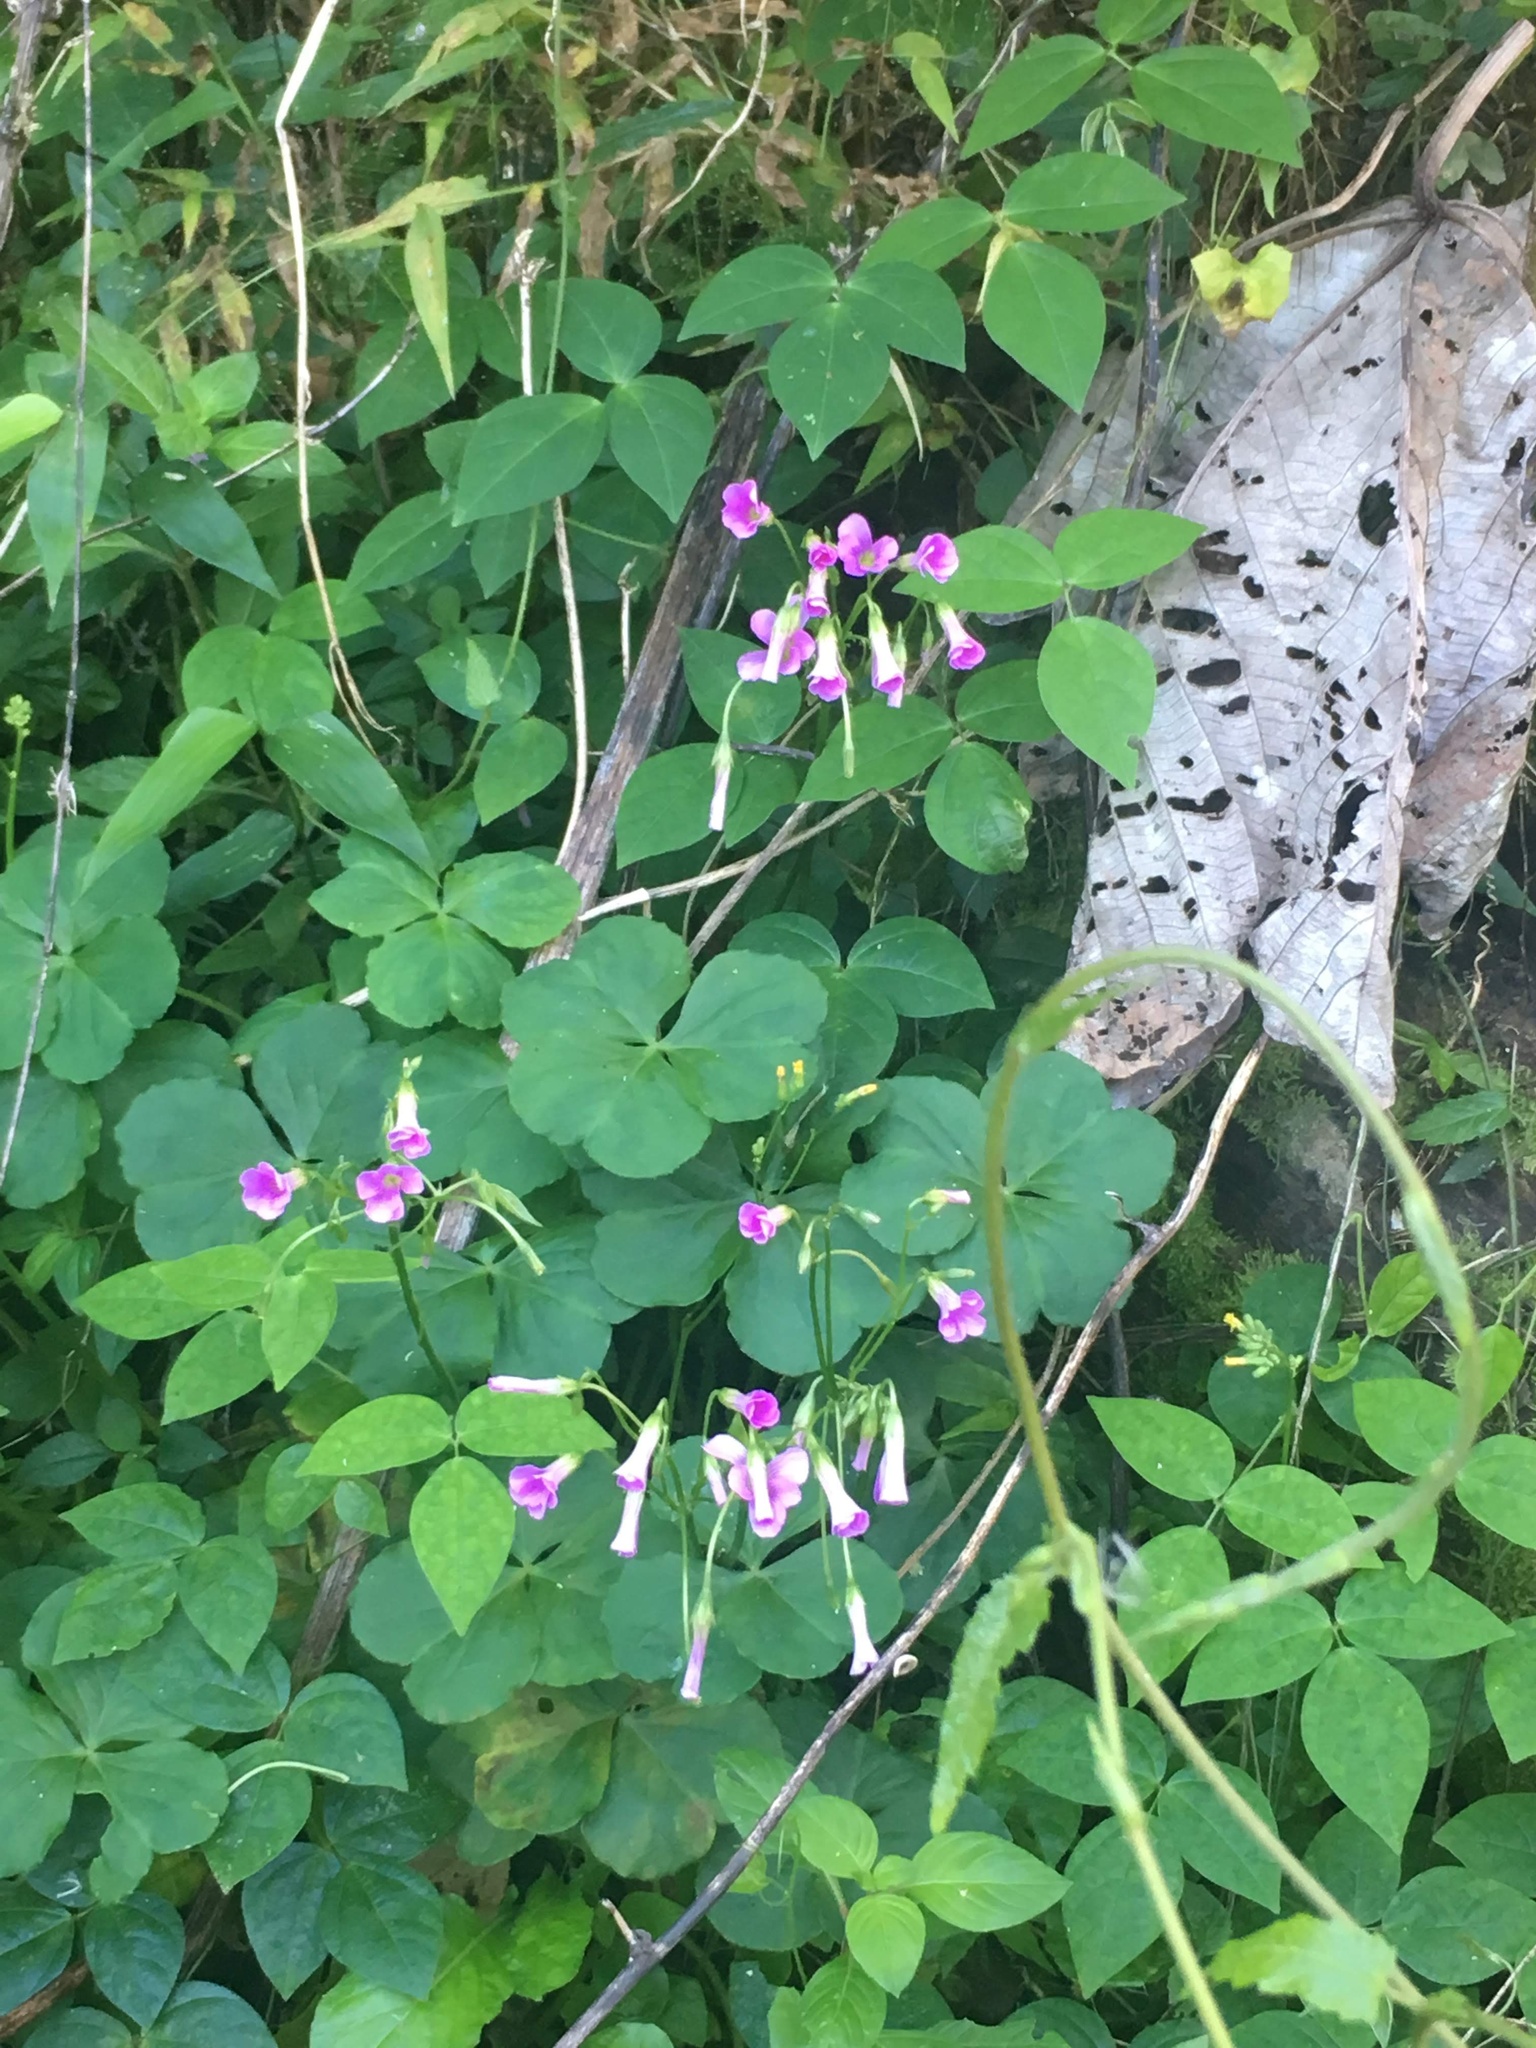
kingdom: Plantae
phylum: Tracheophyta
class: Magnoliopsida
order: Oxalidales
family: Oxalidaceae
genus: Oxalis
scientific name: Oxalis debilis
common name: Large-flowered pink-sorrel
